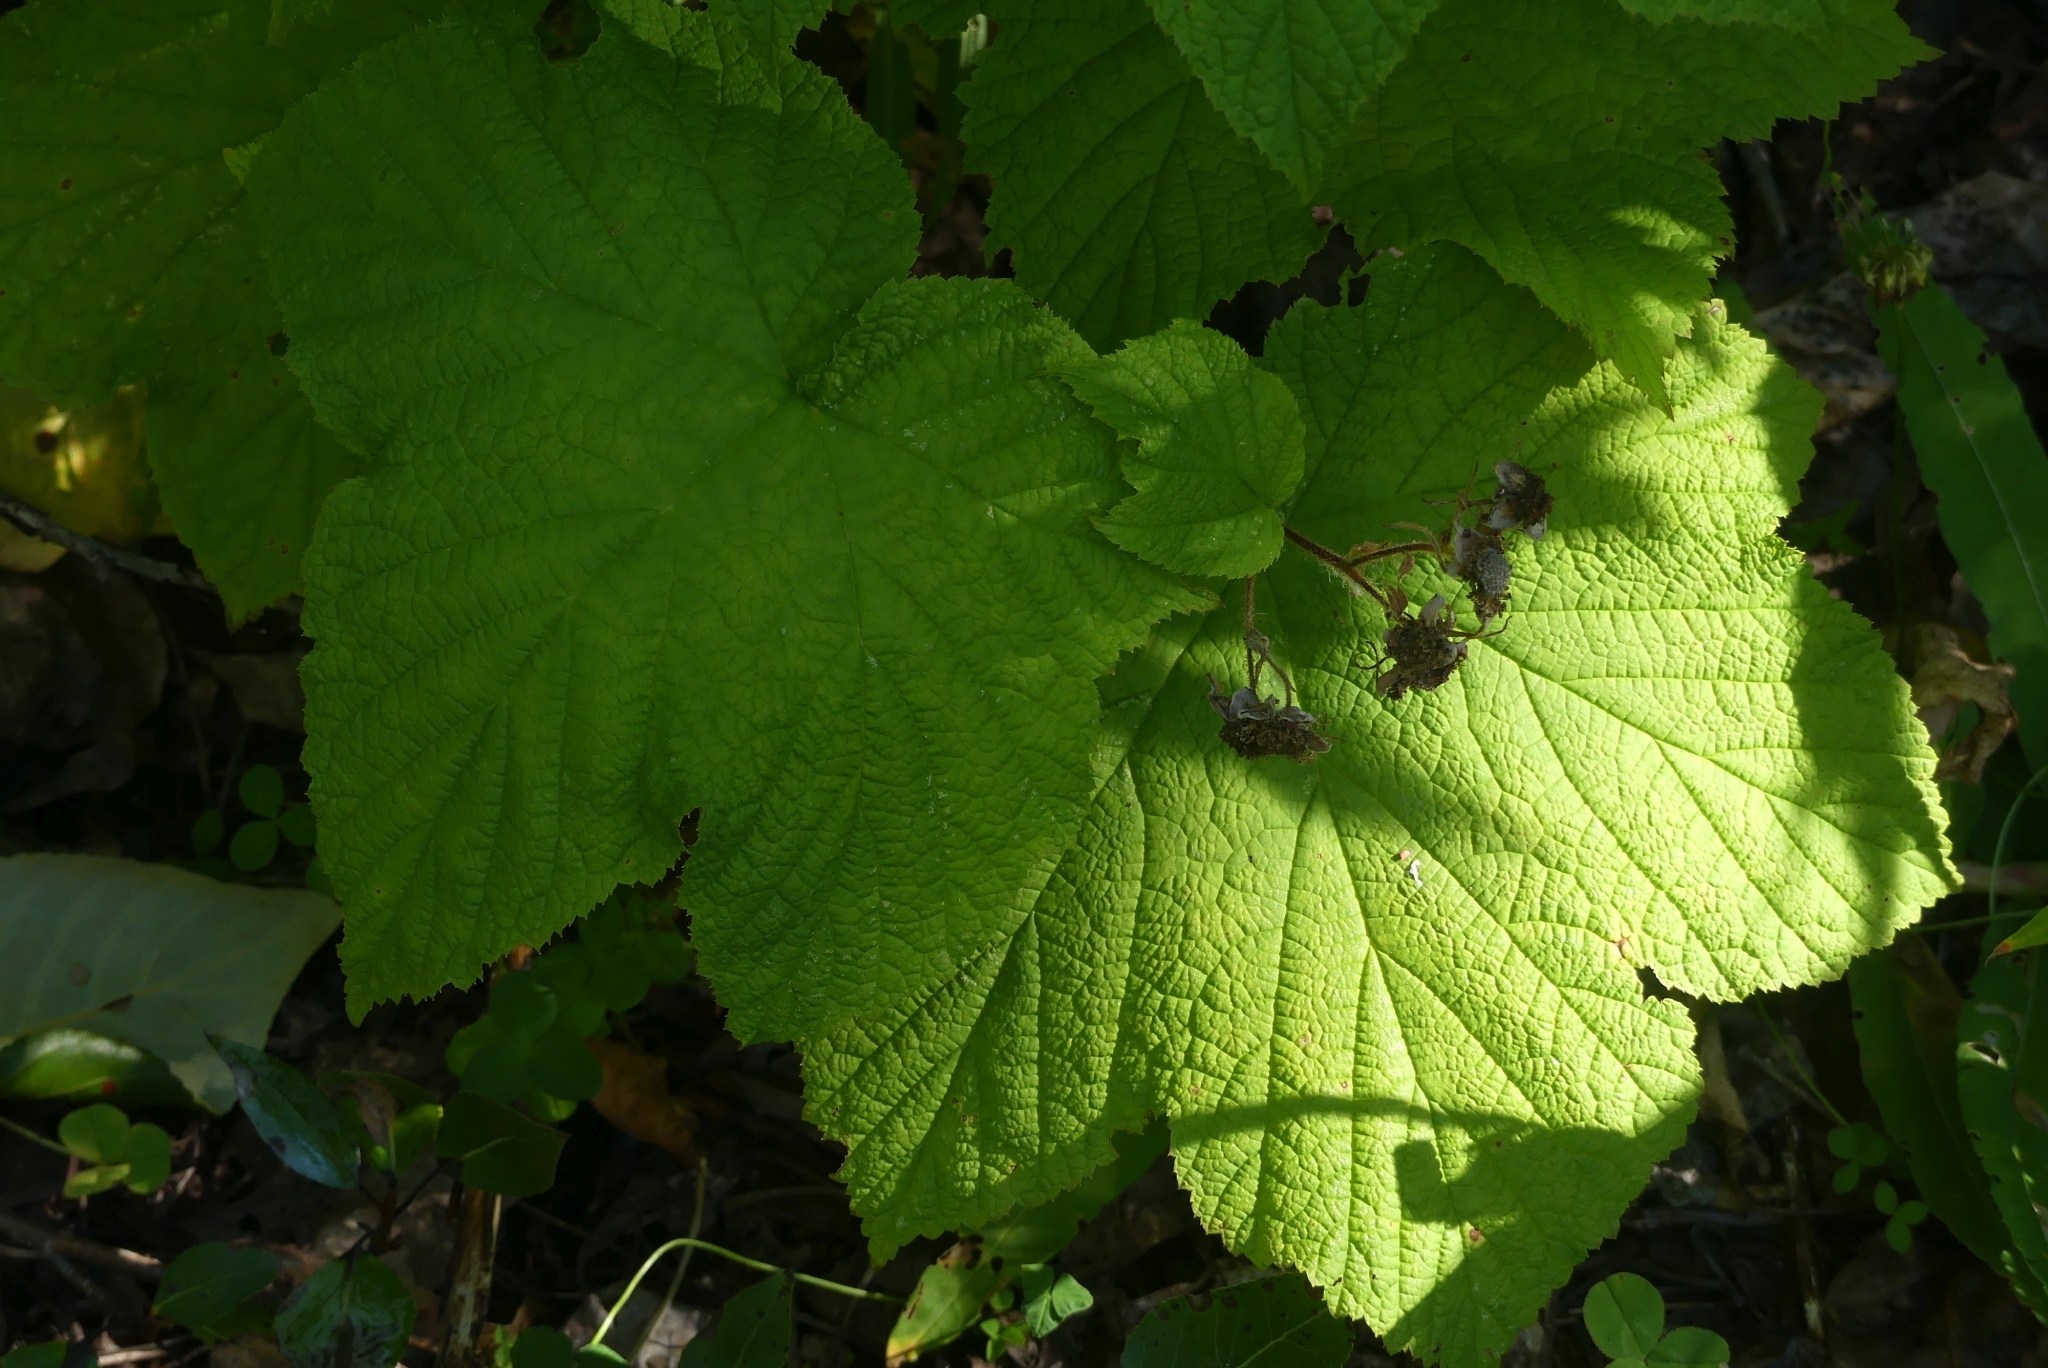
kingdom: Plantae
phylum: Tracheophyta
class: Magnoliopsida
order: Rosales
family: Rosaceae
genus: Rubus
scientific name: Rubus parviflorus
